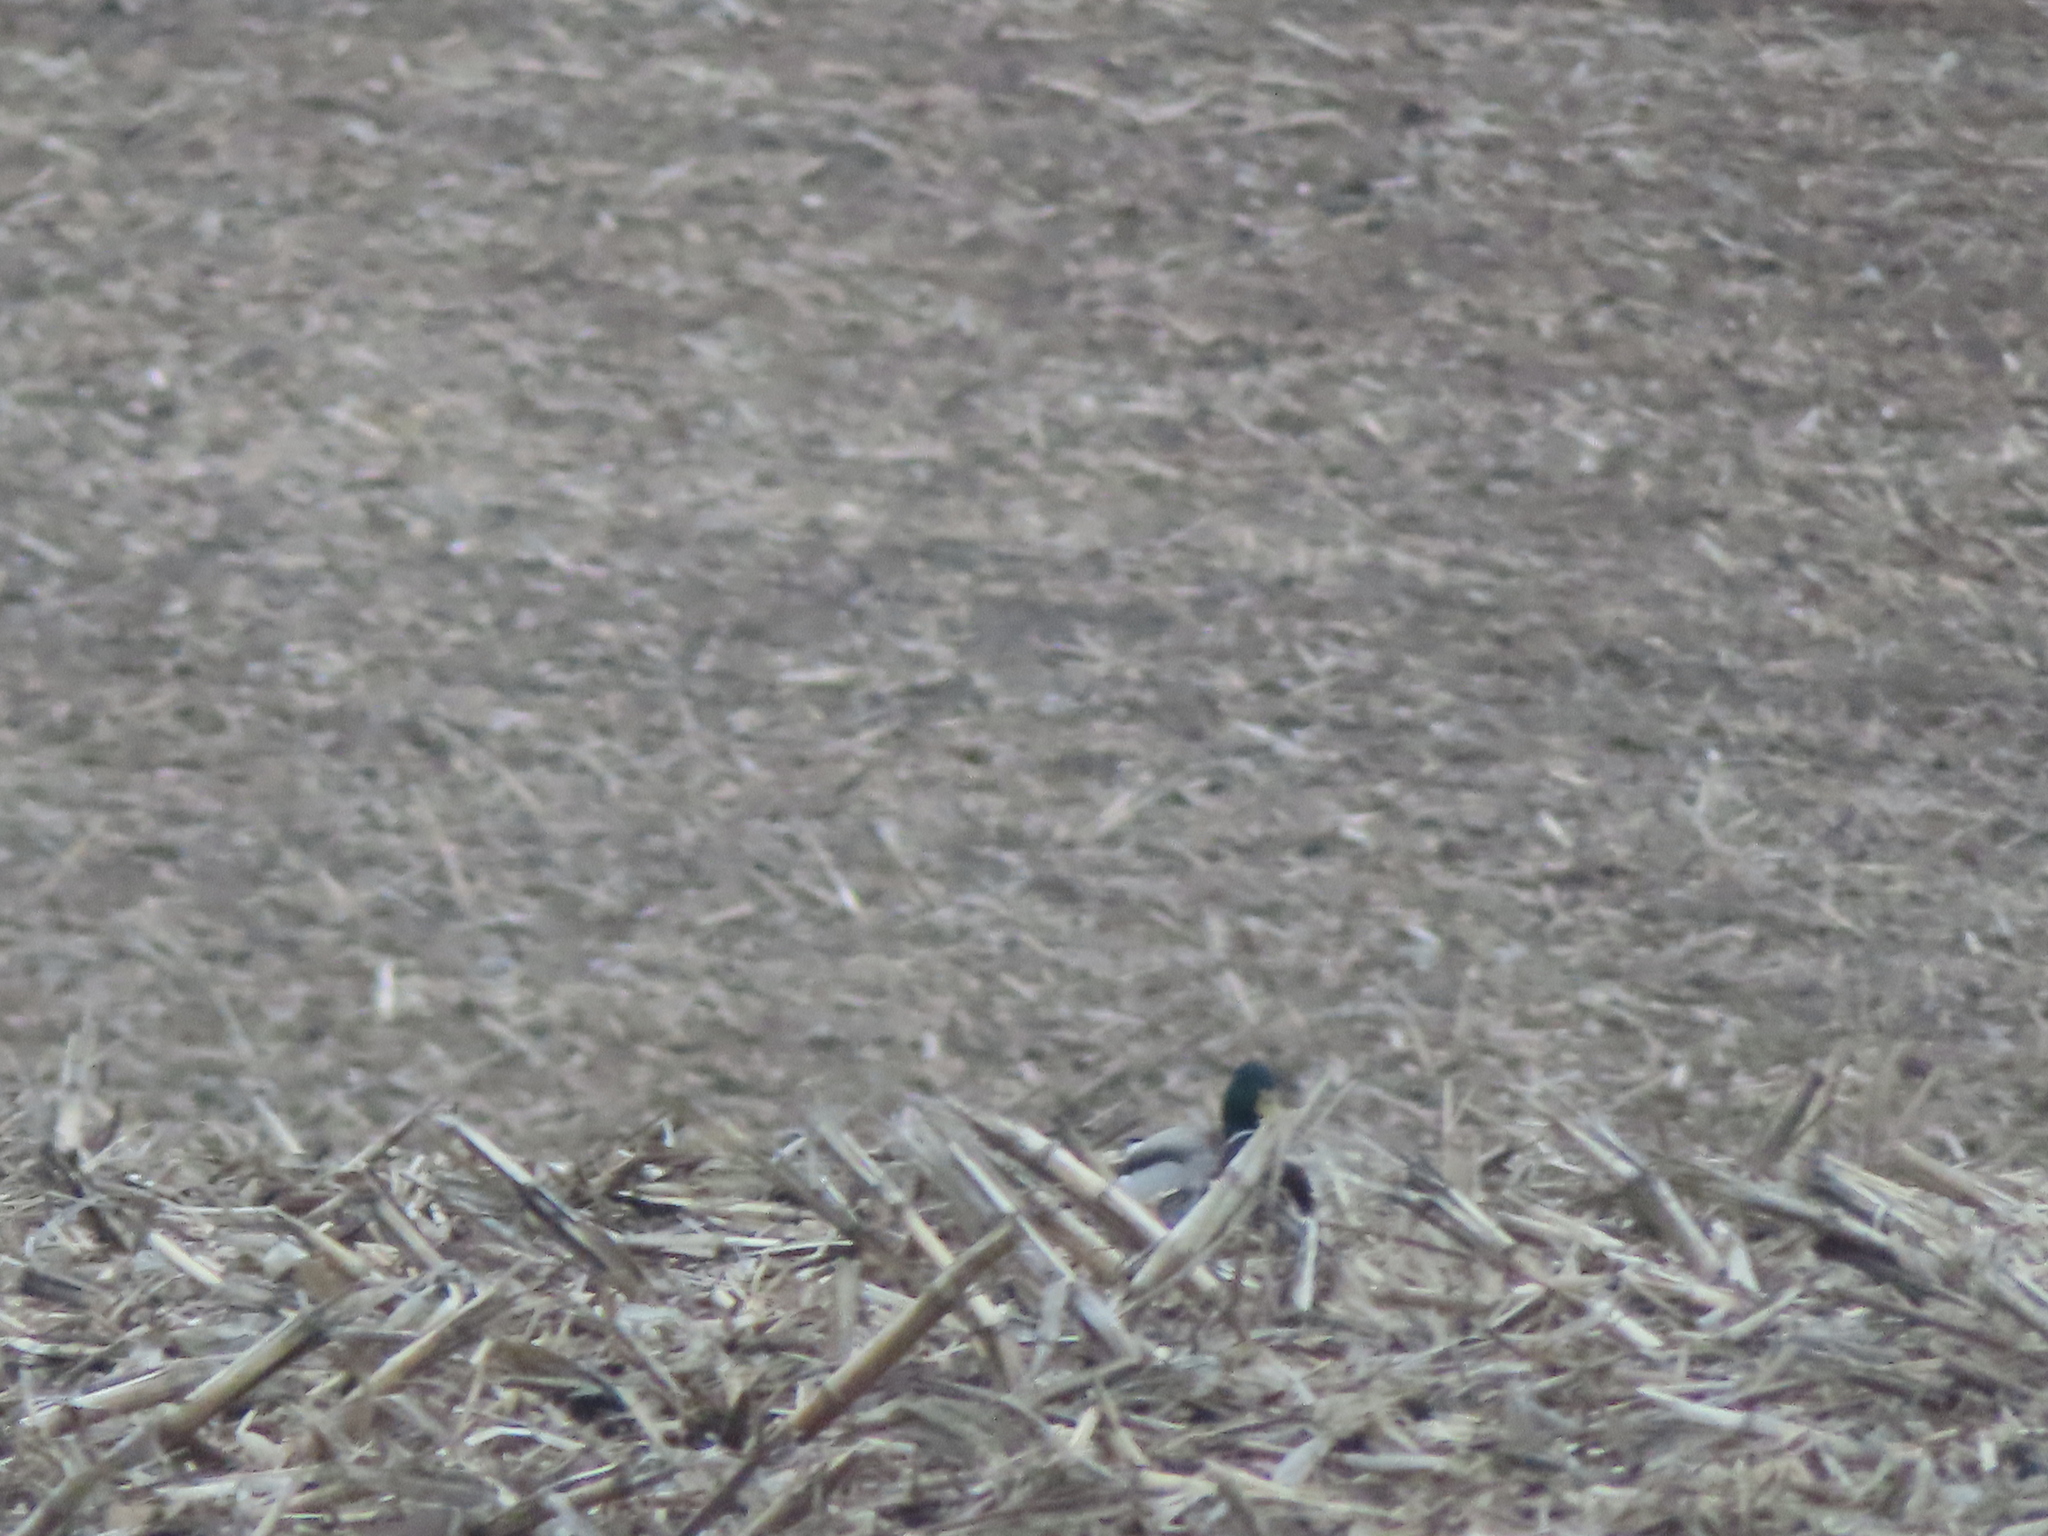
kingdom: Animalia
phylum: Chordata
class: Aves
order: Anseriformes
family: Anatidae
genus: Anas
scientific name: Anas platyrhynchos
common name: Mallard
